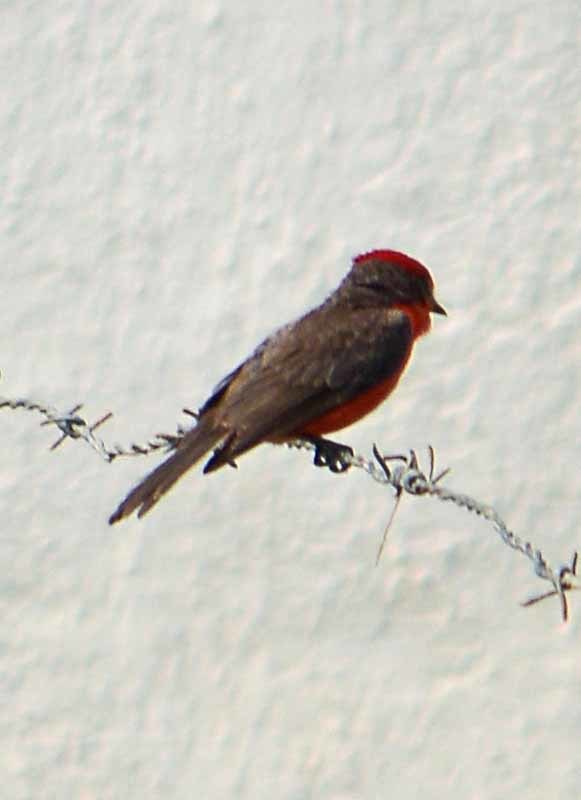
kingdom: Animalia
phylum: Chordata
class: Aves
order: Passeriformes
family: Tyrannidae
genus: Pyrocephalus
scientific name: Pyrocephalus rubinus
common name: Vermilion flycatcher
